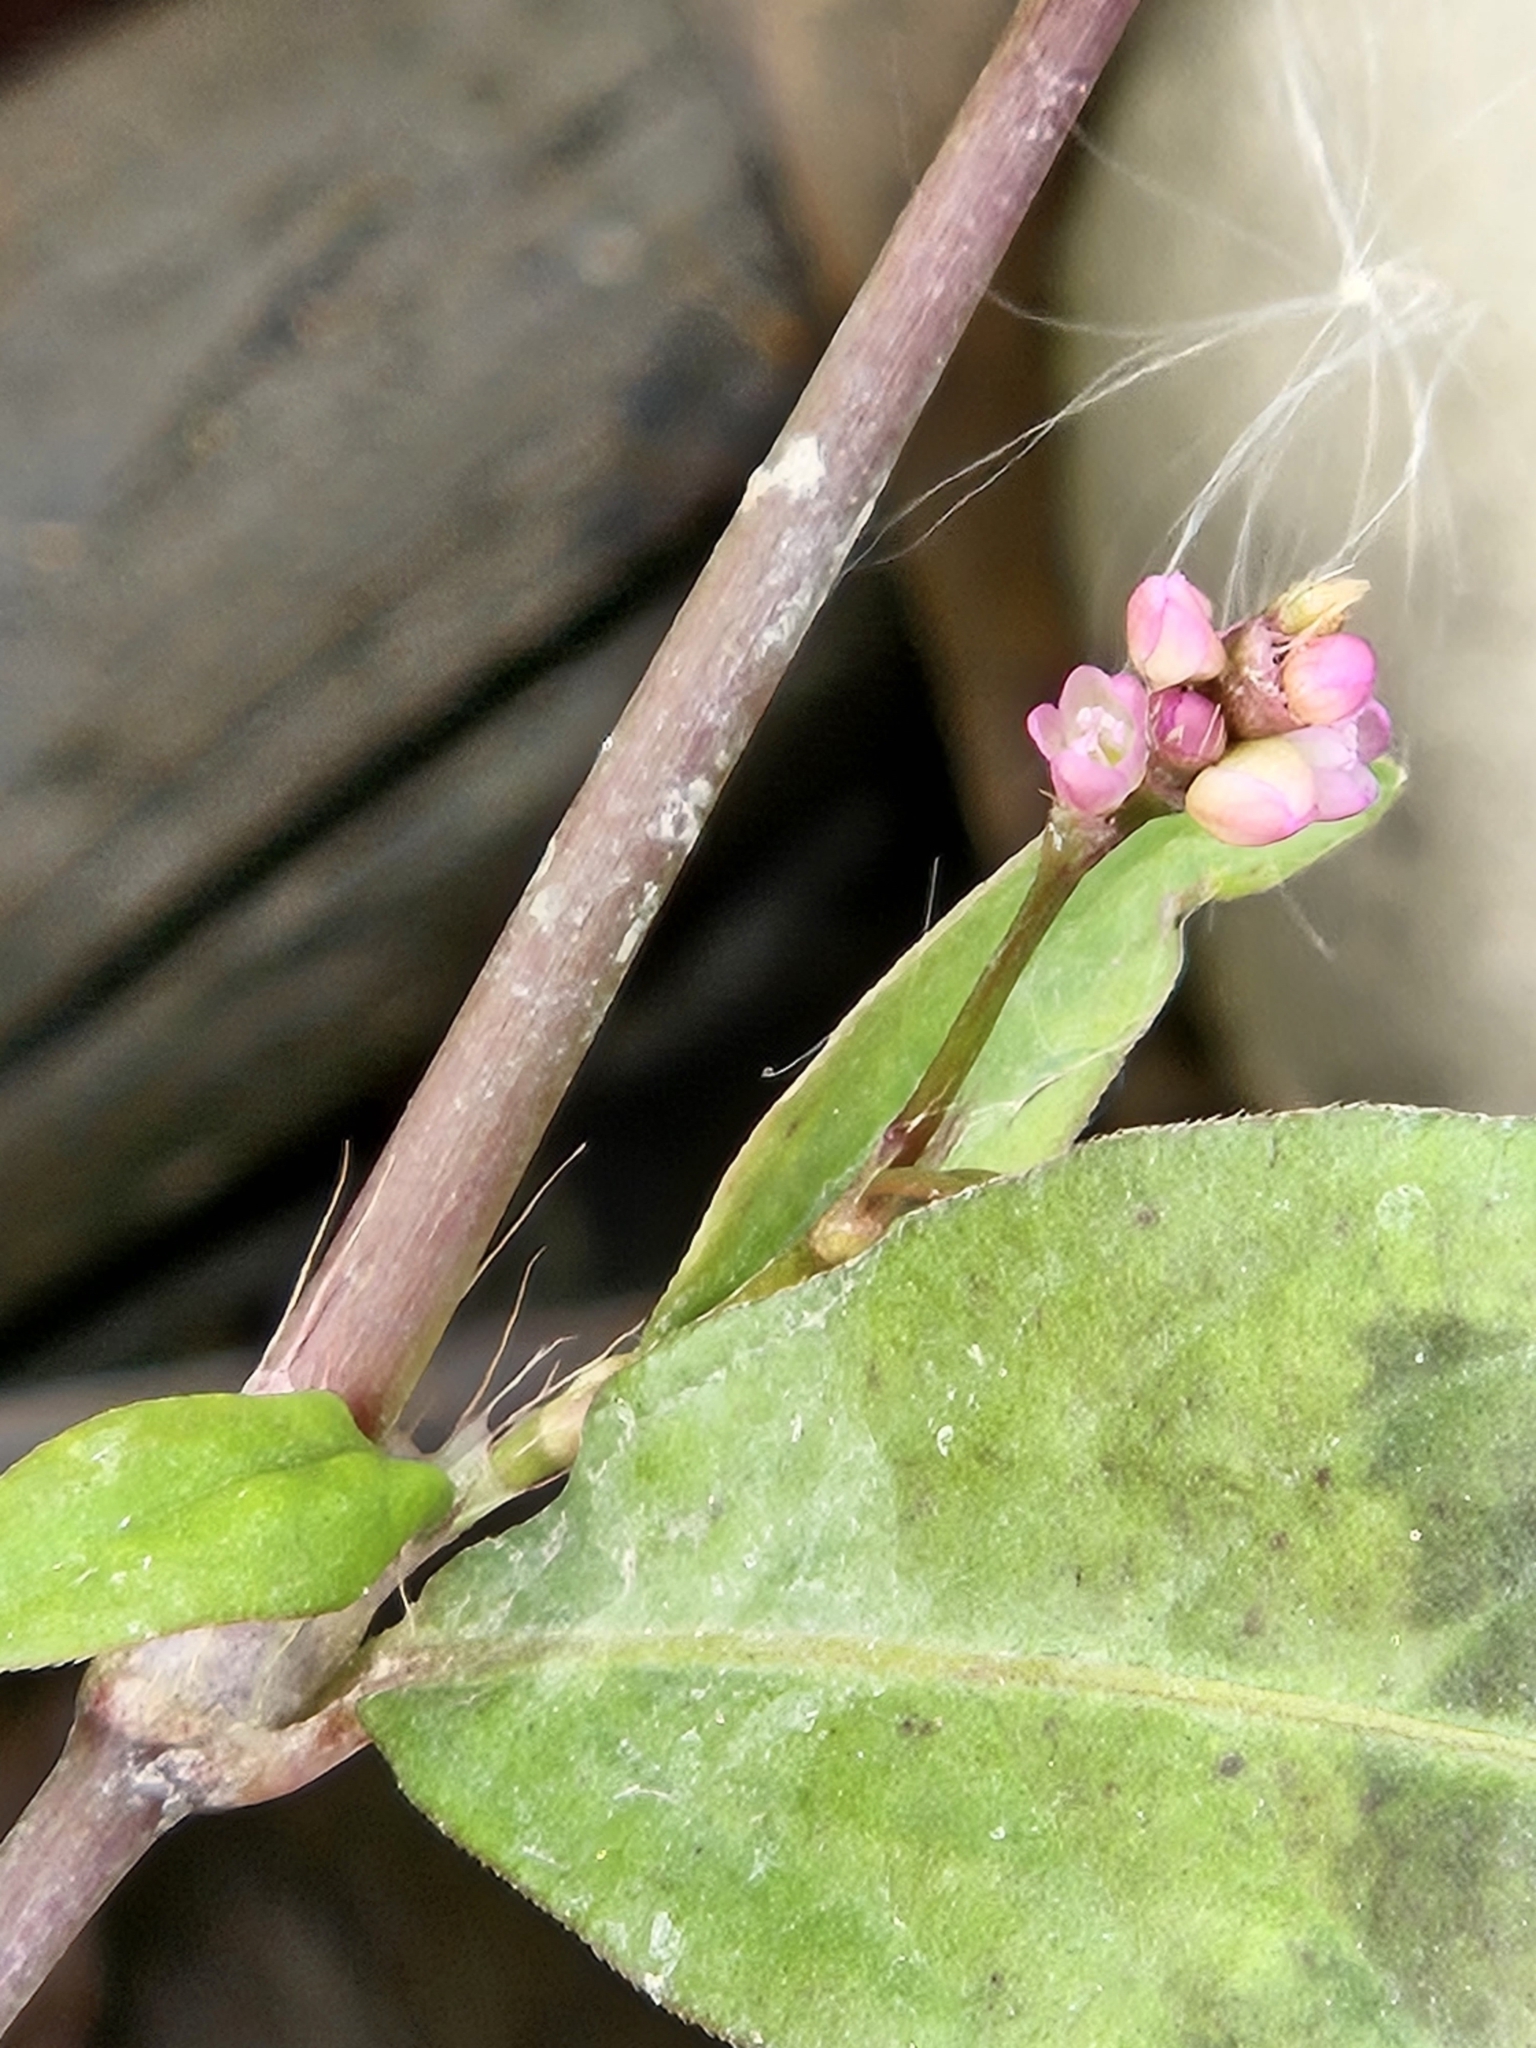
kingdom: Plantae
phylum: Tracheophyta
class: Magnoliopsida
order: Caryophyllales
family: Polygonaceae
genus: Persicaria
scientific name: Persicaria longiseta
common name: Bristly lady's-thumb
